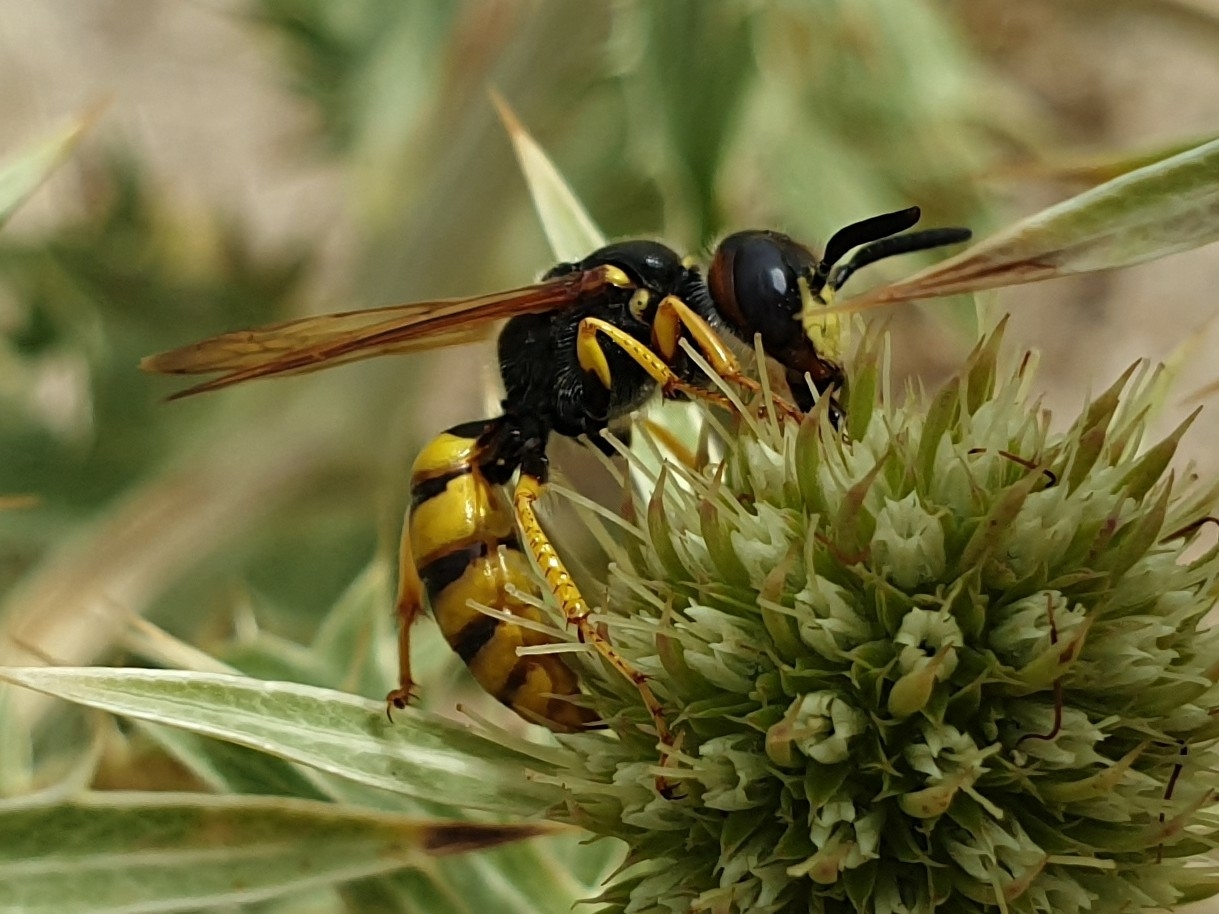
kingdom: Animalia
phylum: Arthropoda
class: Insecta
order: Hymenoptera
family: Crabronidae
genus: Philanthus
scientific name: Philanthus triangulum
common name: Bee wolf
